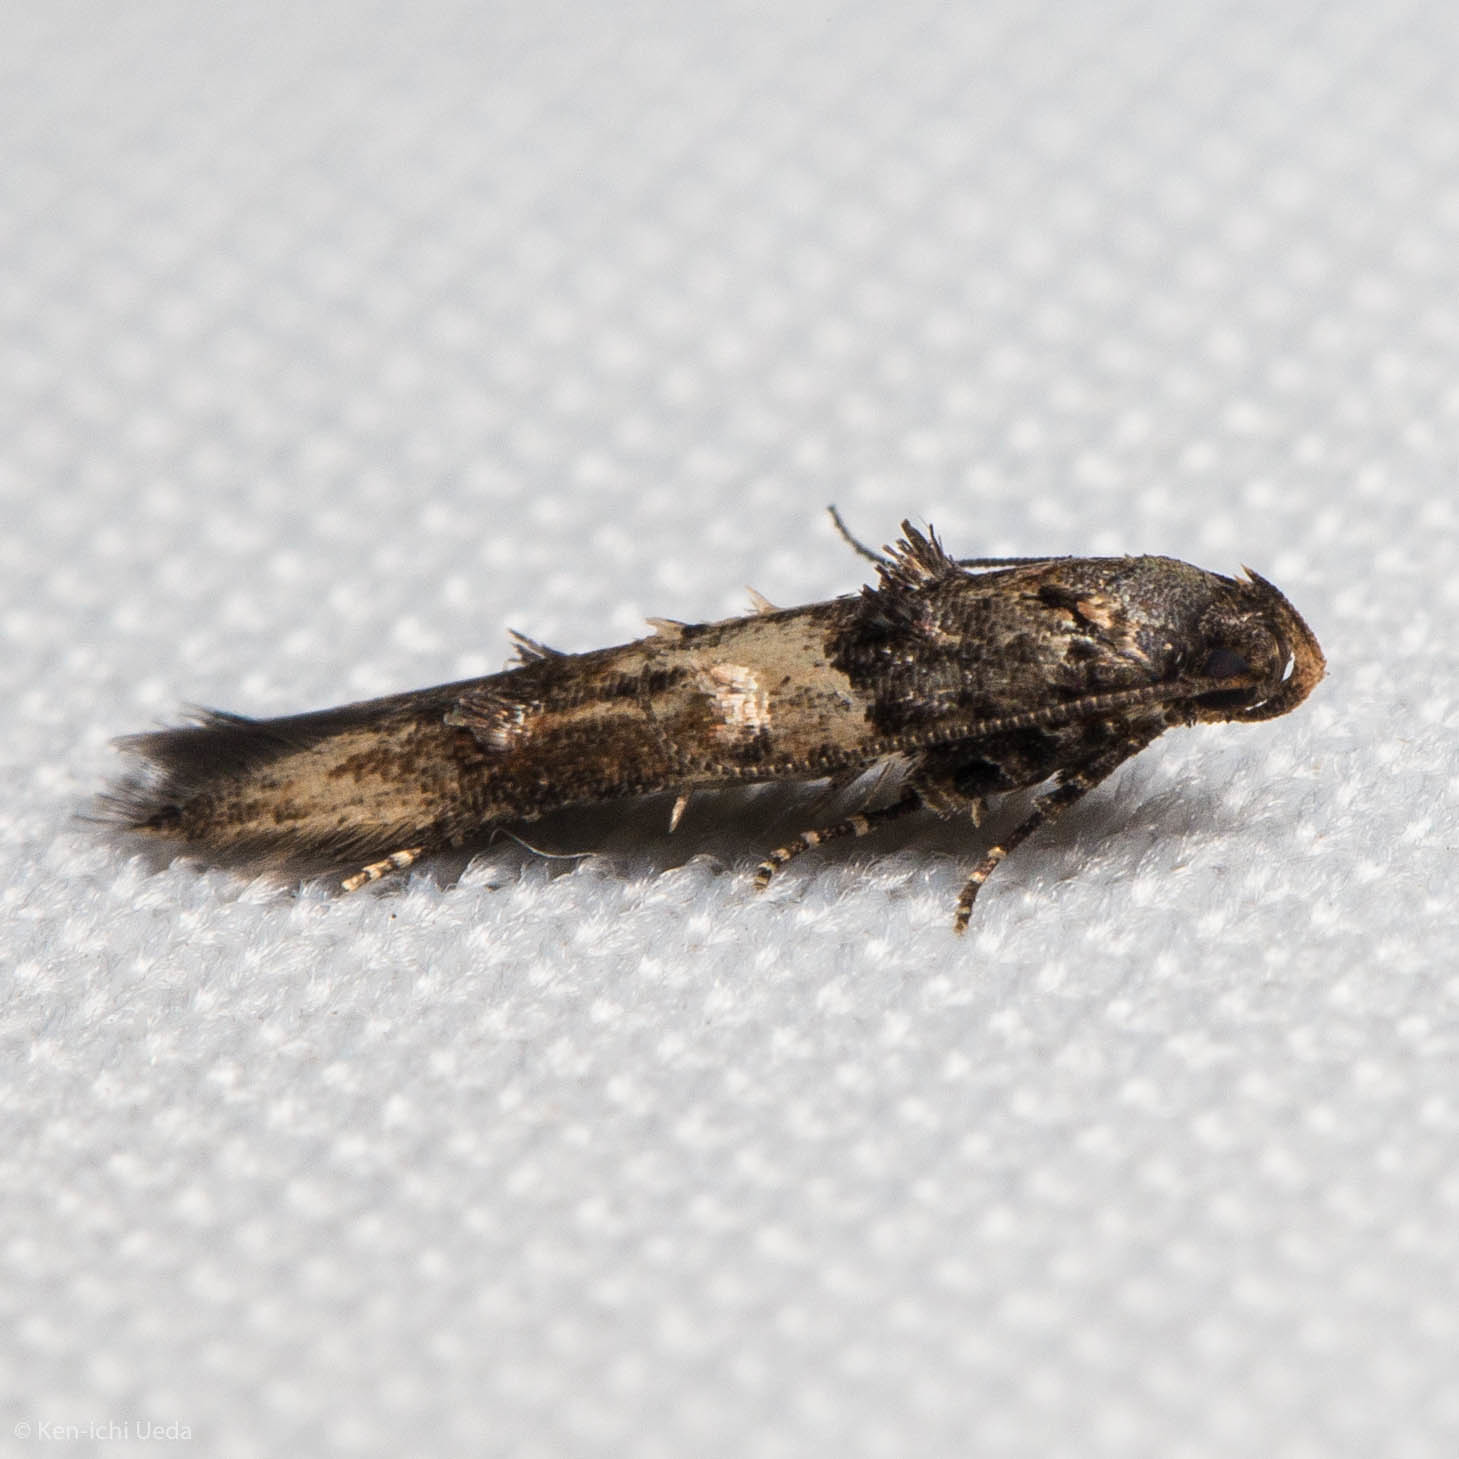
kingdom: Animalia
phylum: Arthropoda
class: Insecta
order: Lepidoptera
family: Cosmopterigidae
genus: Walshia
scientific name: Walshia miscecolorella
